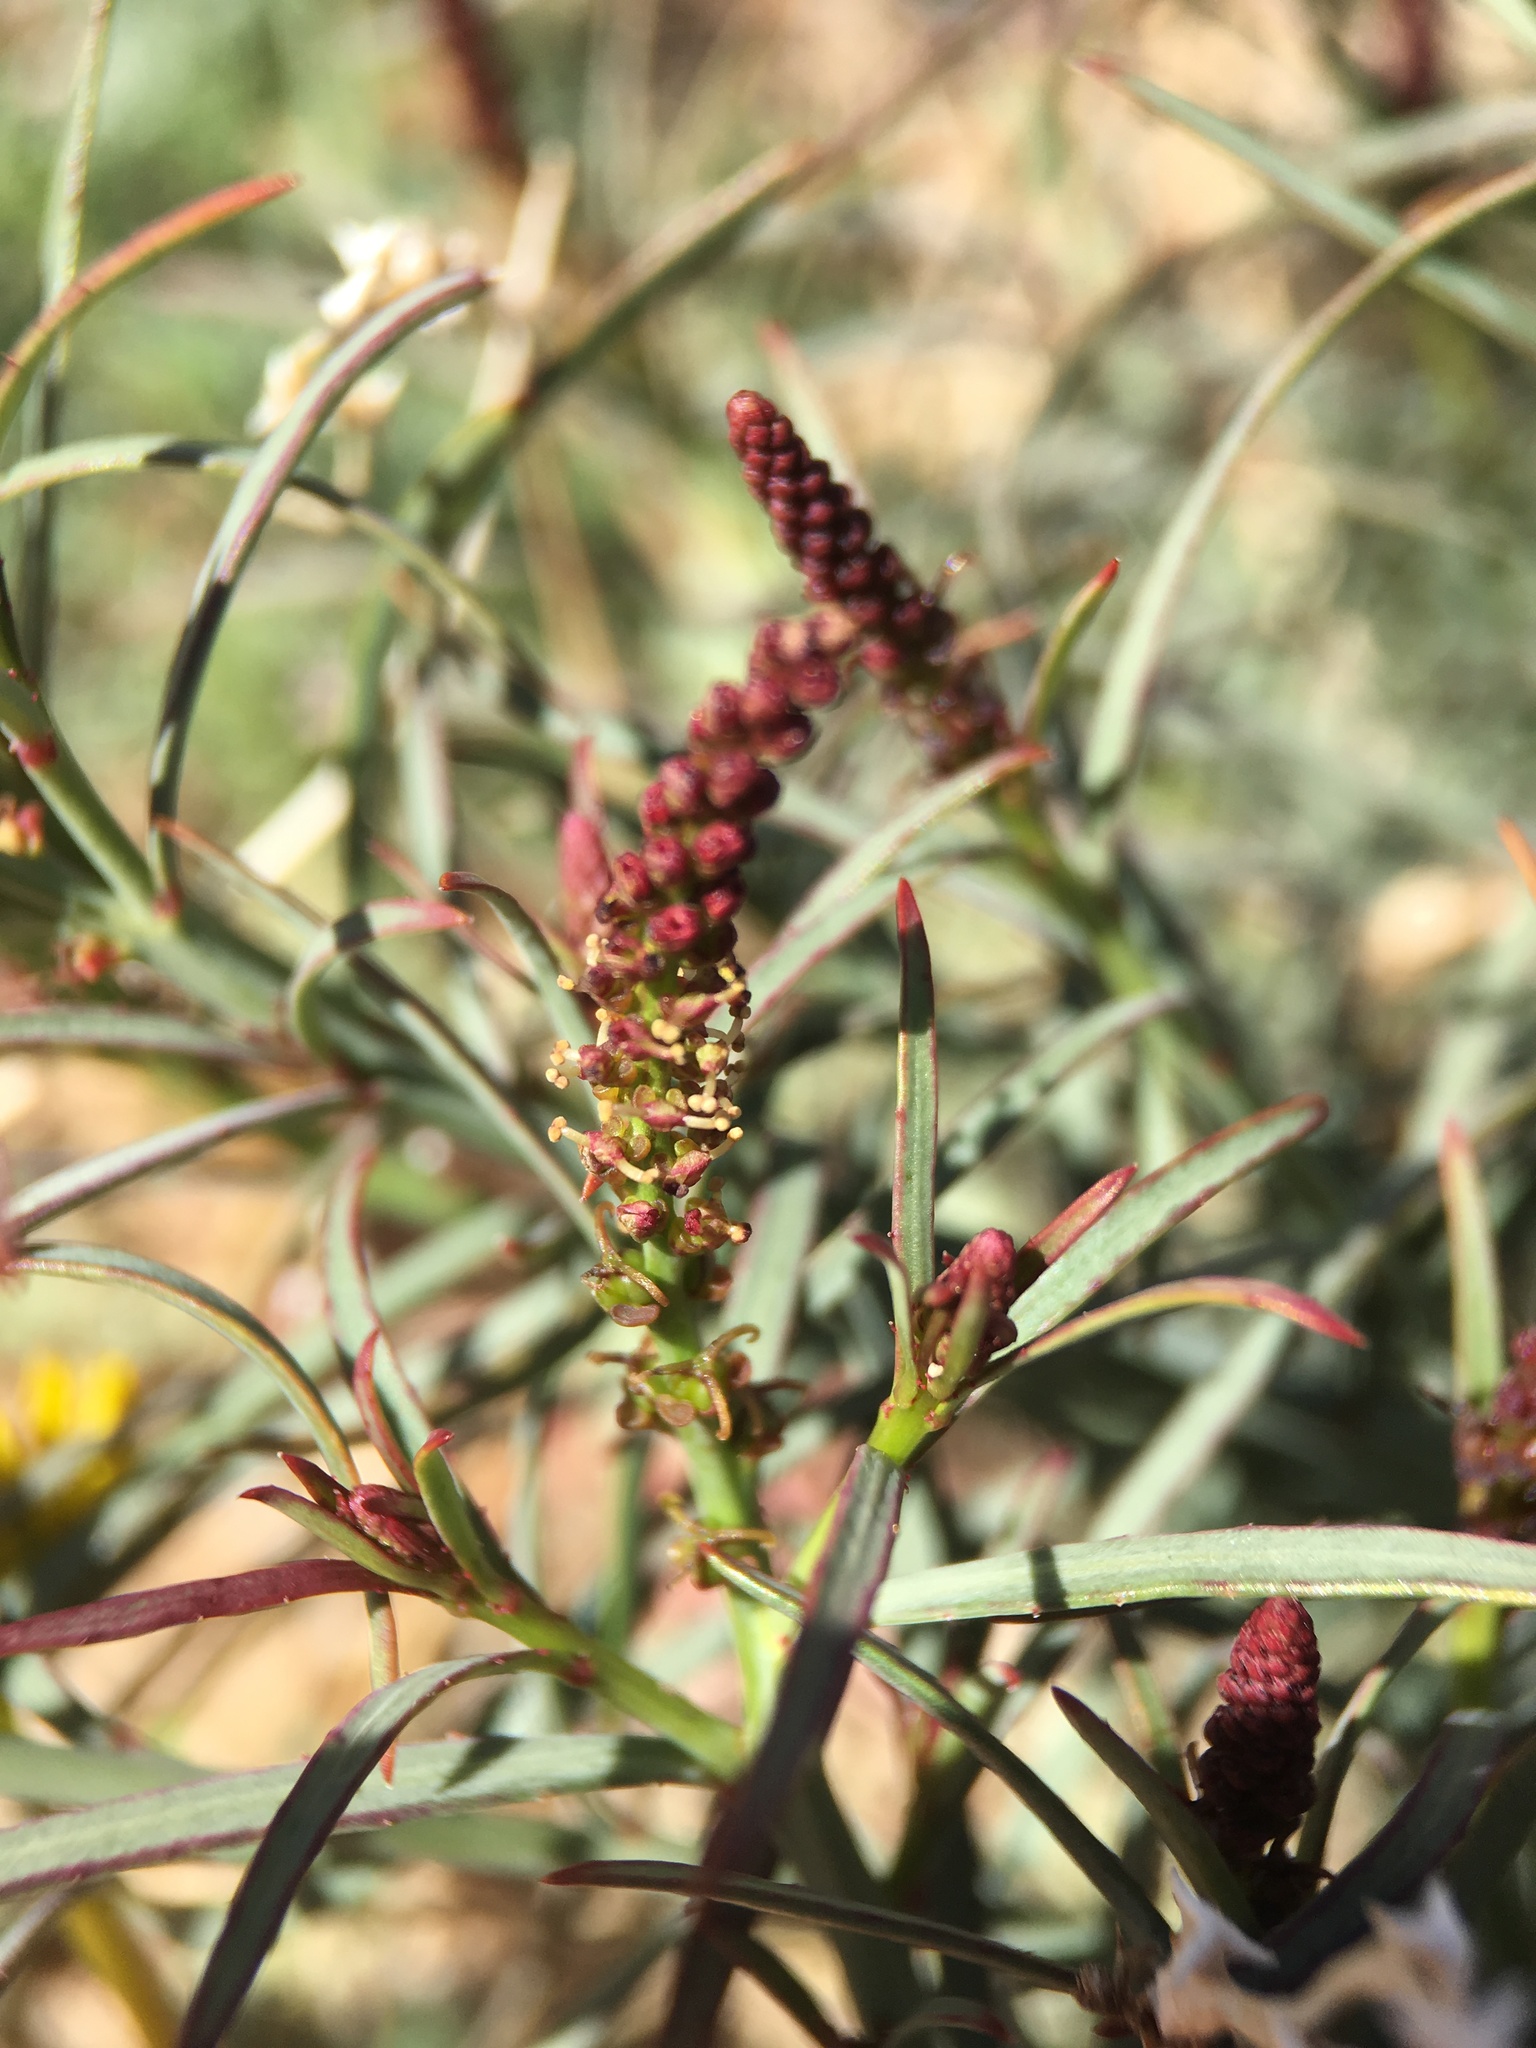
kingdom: Plantae
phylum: Tracheophyta
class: Magnoliopsida
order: Malpighiales
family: Euphorbiaceae
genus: Stillingia
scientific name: Stillingia linearifolia
